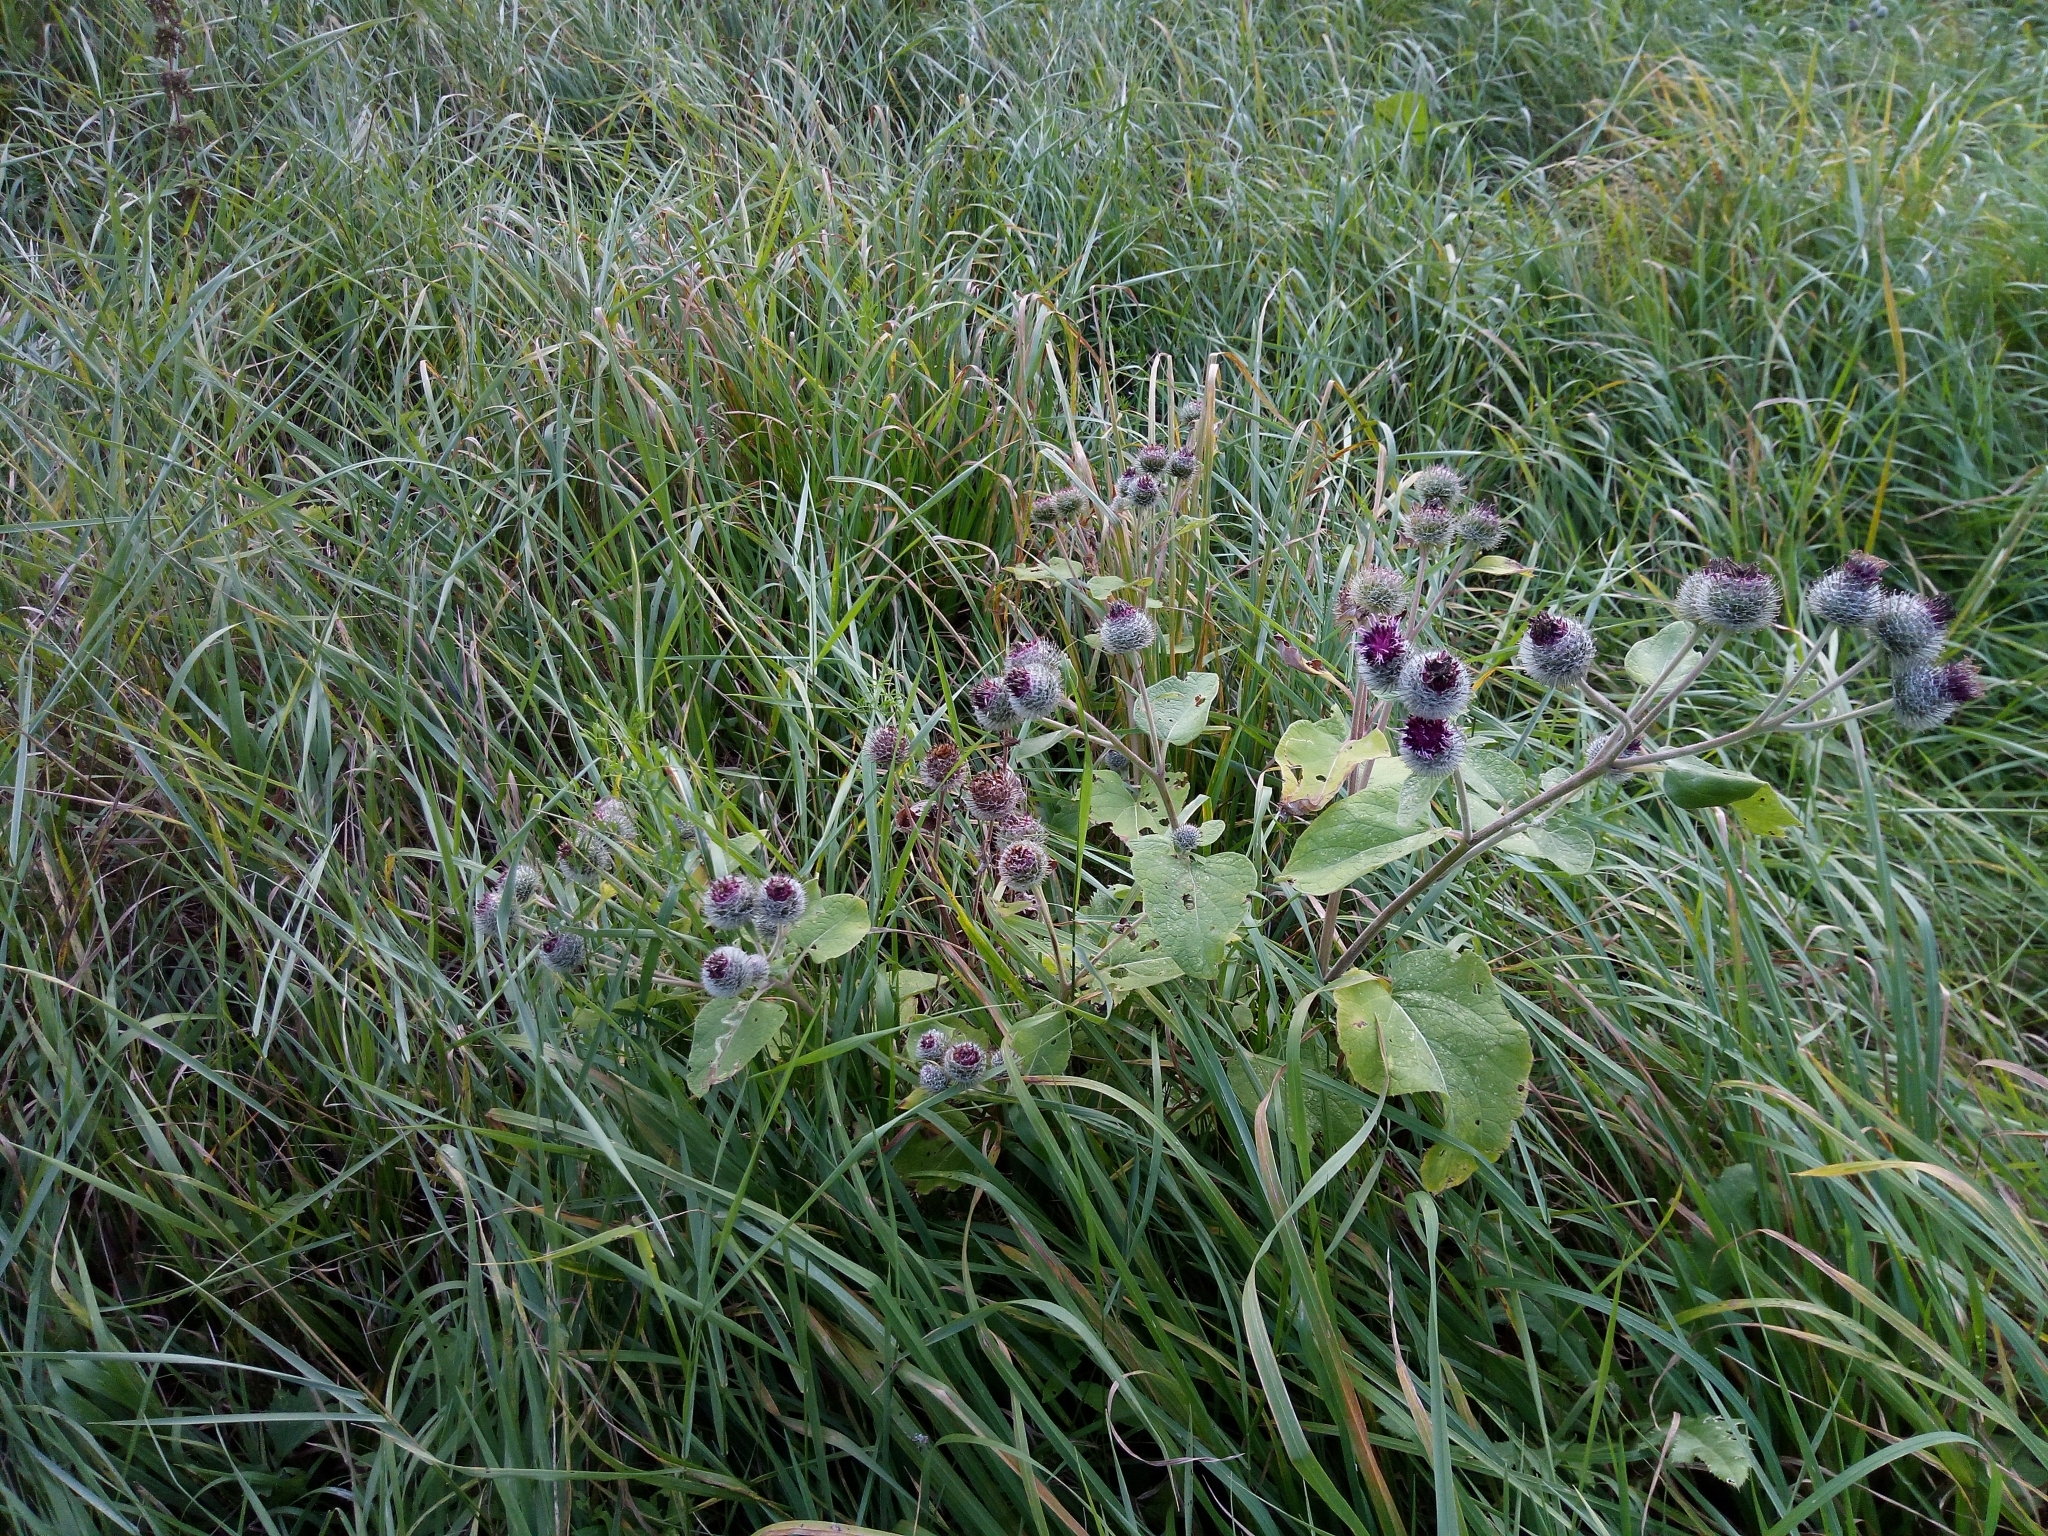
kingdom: Plantae
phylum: Tracheophyta
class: Magnoliopsida
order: Asterales
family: Asteraceae
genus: Arctium
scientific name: Arctium tomentosum
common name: Woolly burdock
